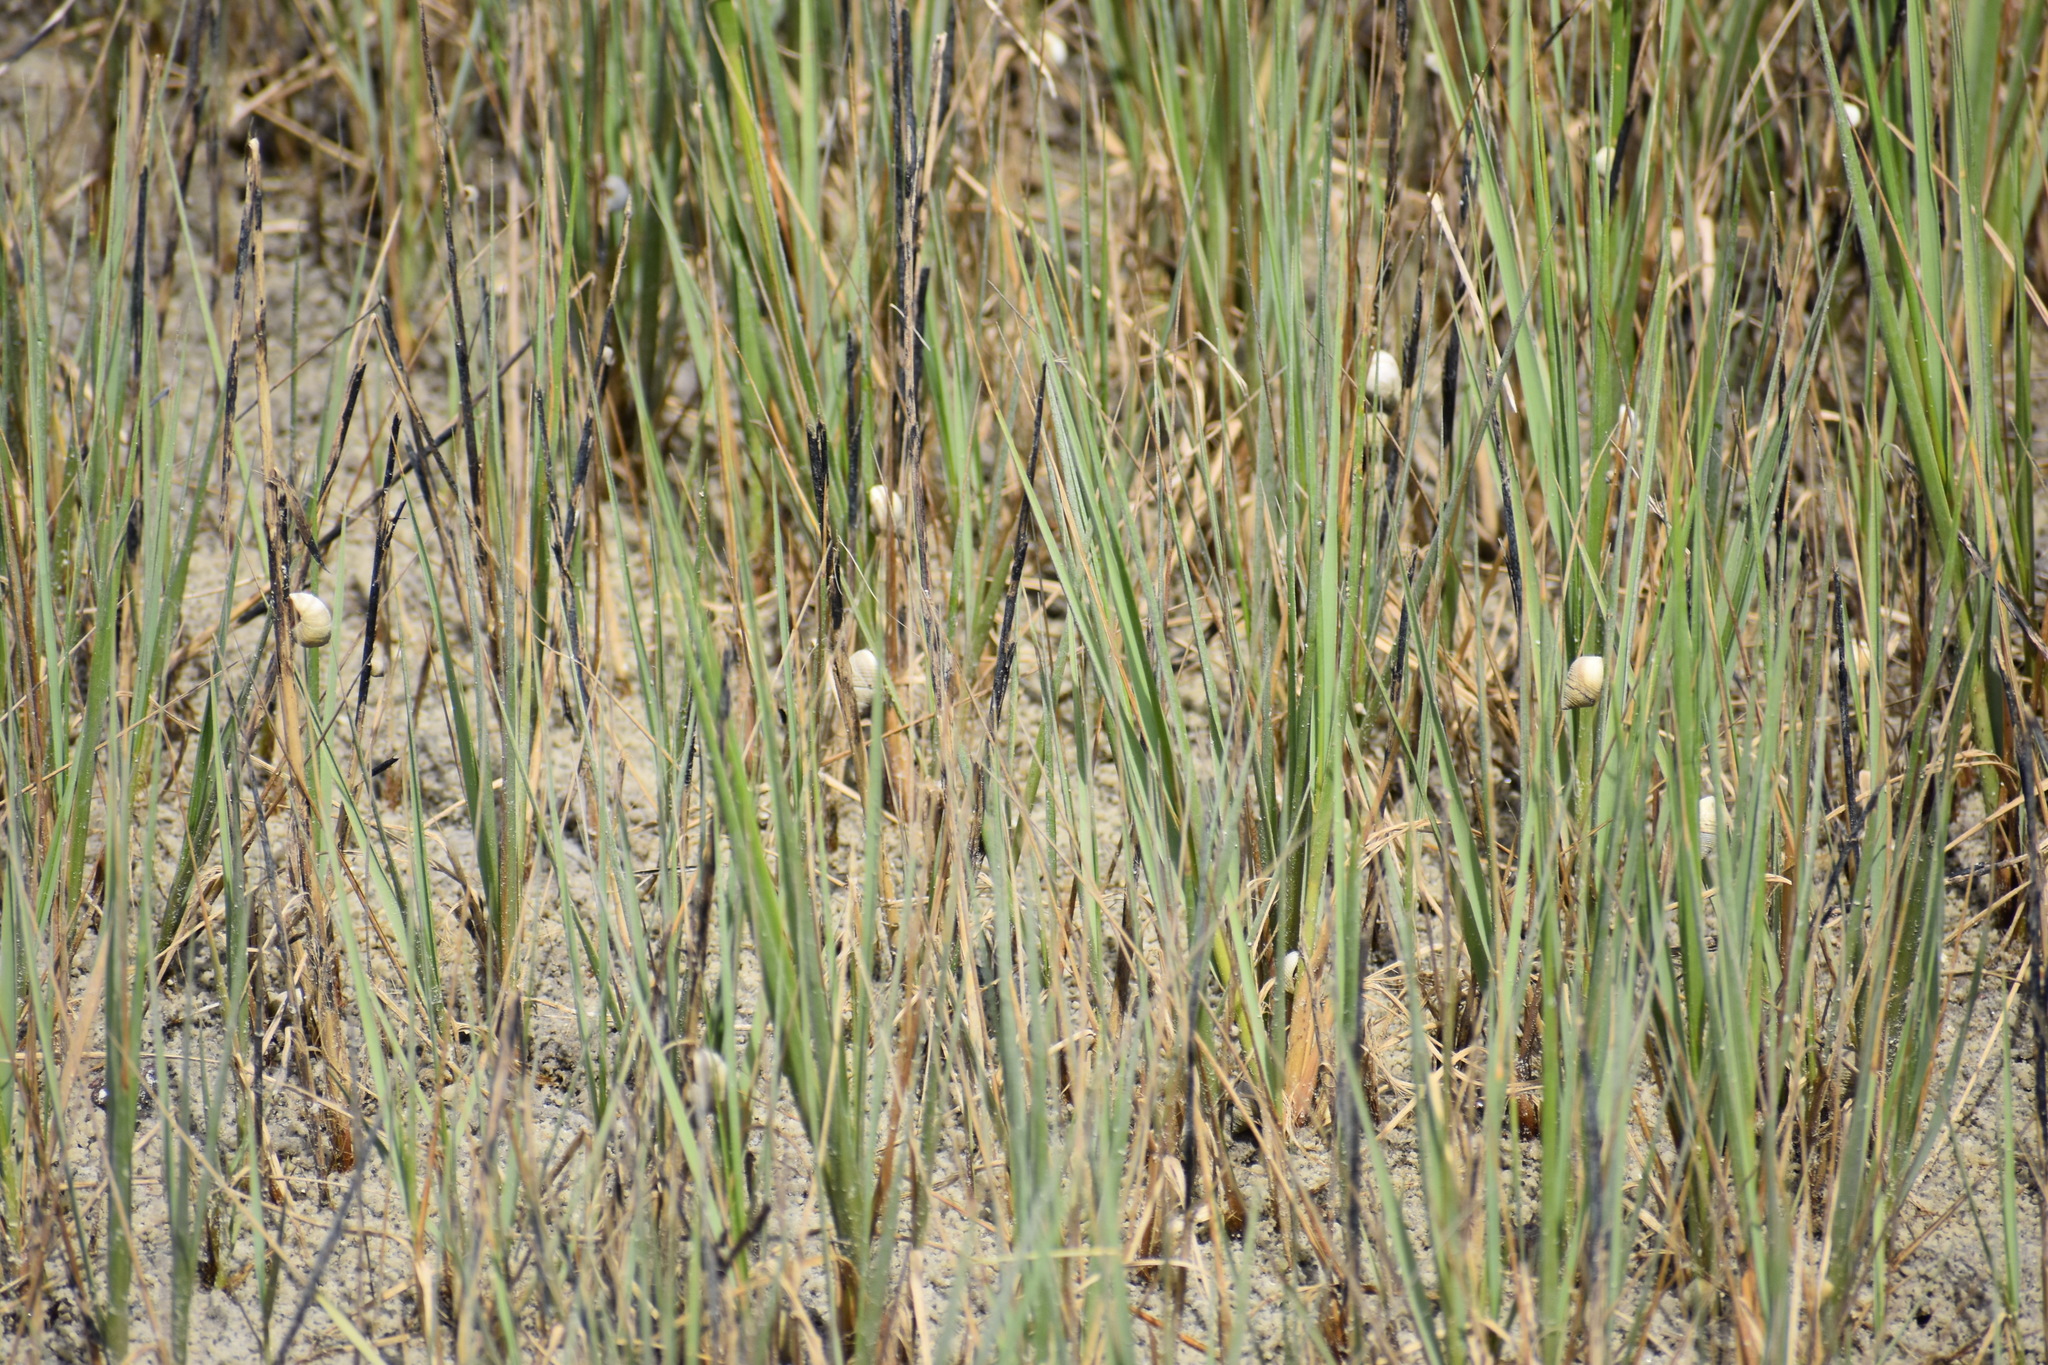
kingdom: Animalia
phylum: Mollusca
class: Gastropoda
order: Littorinimorpha
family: Littorinidae
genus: Littoraria
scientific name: Littoraria irrorata
